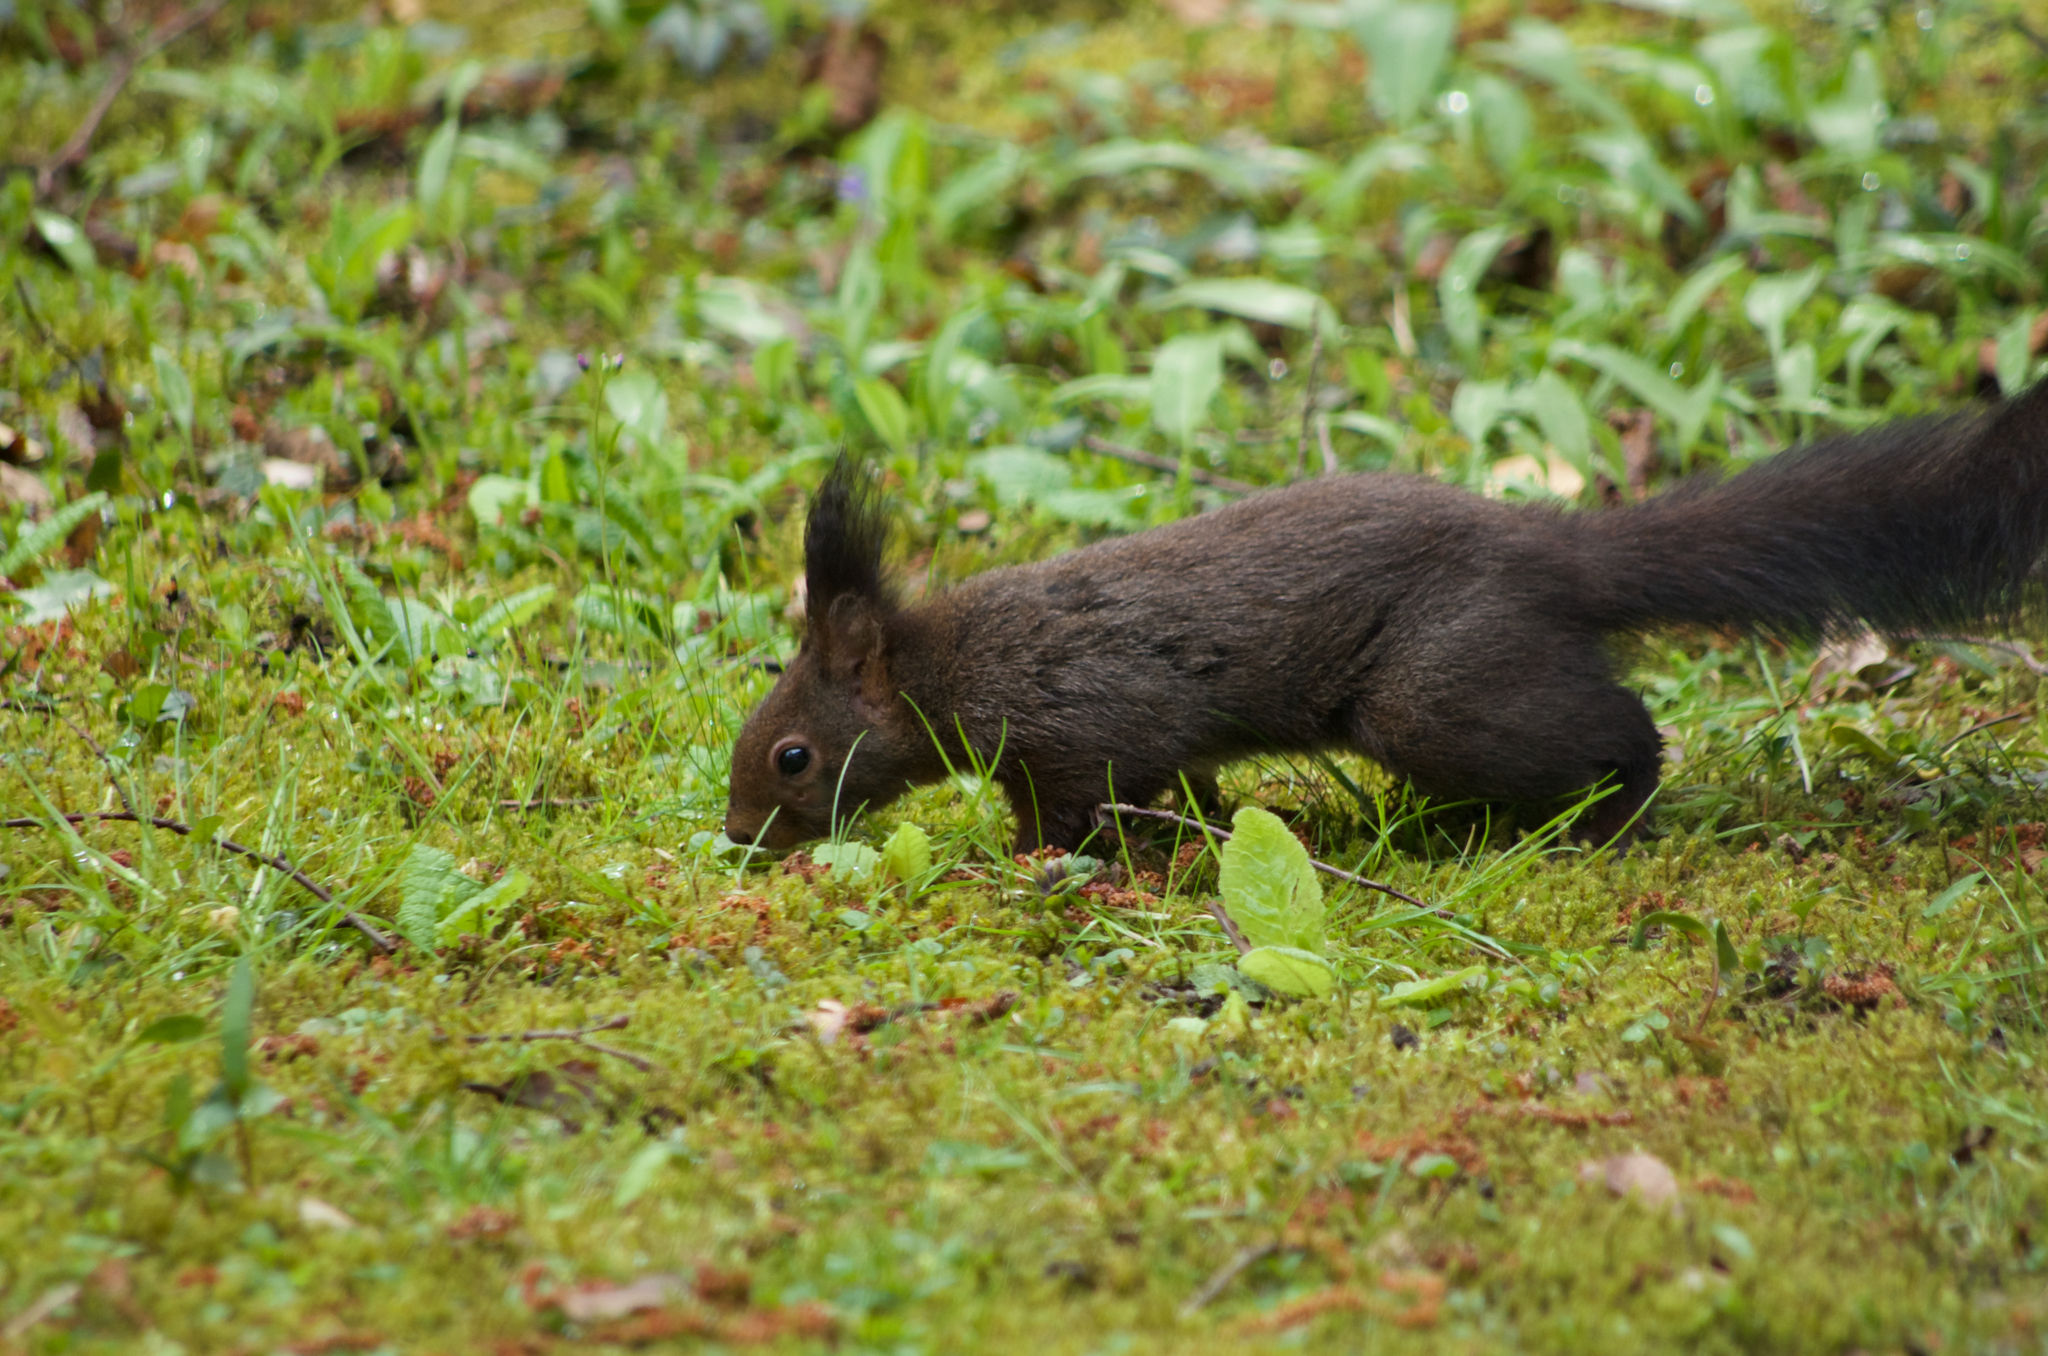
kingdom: Animalia
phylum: Chordata
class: Mammalia
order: Rodentia
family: Sciuridae
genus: Sciurus
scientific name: Sciurus vulgaris
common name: Eurasian red squirrel
